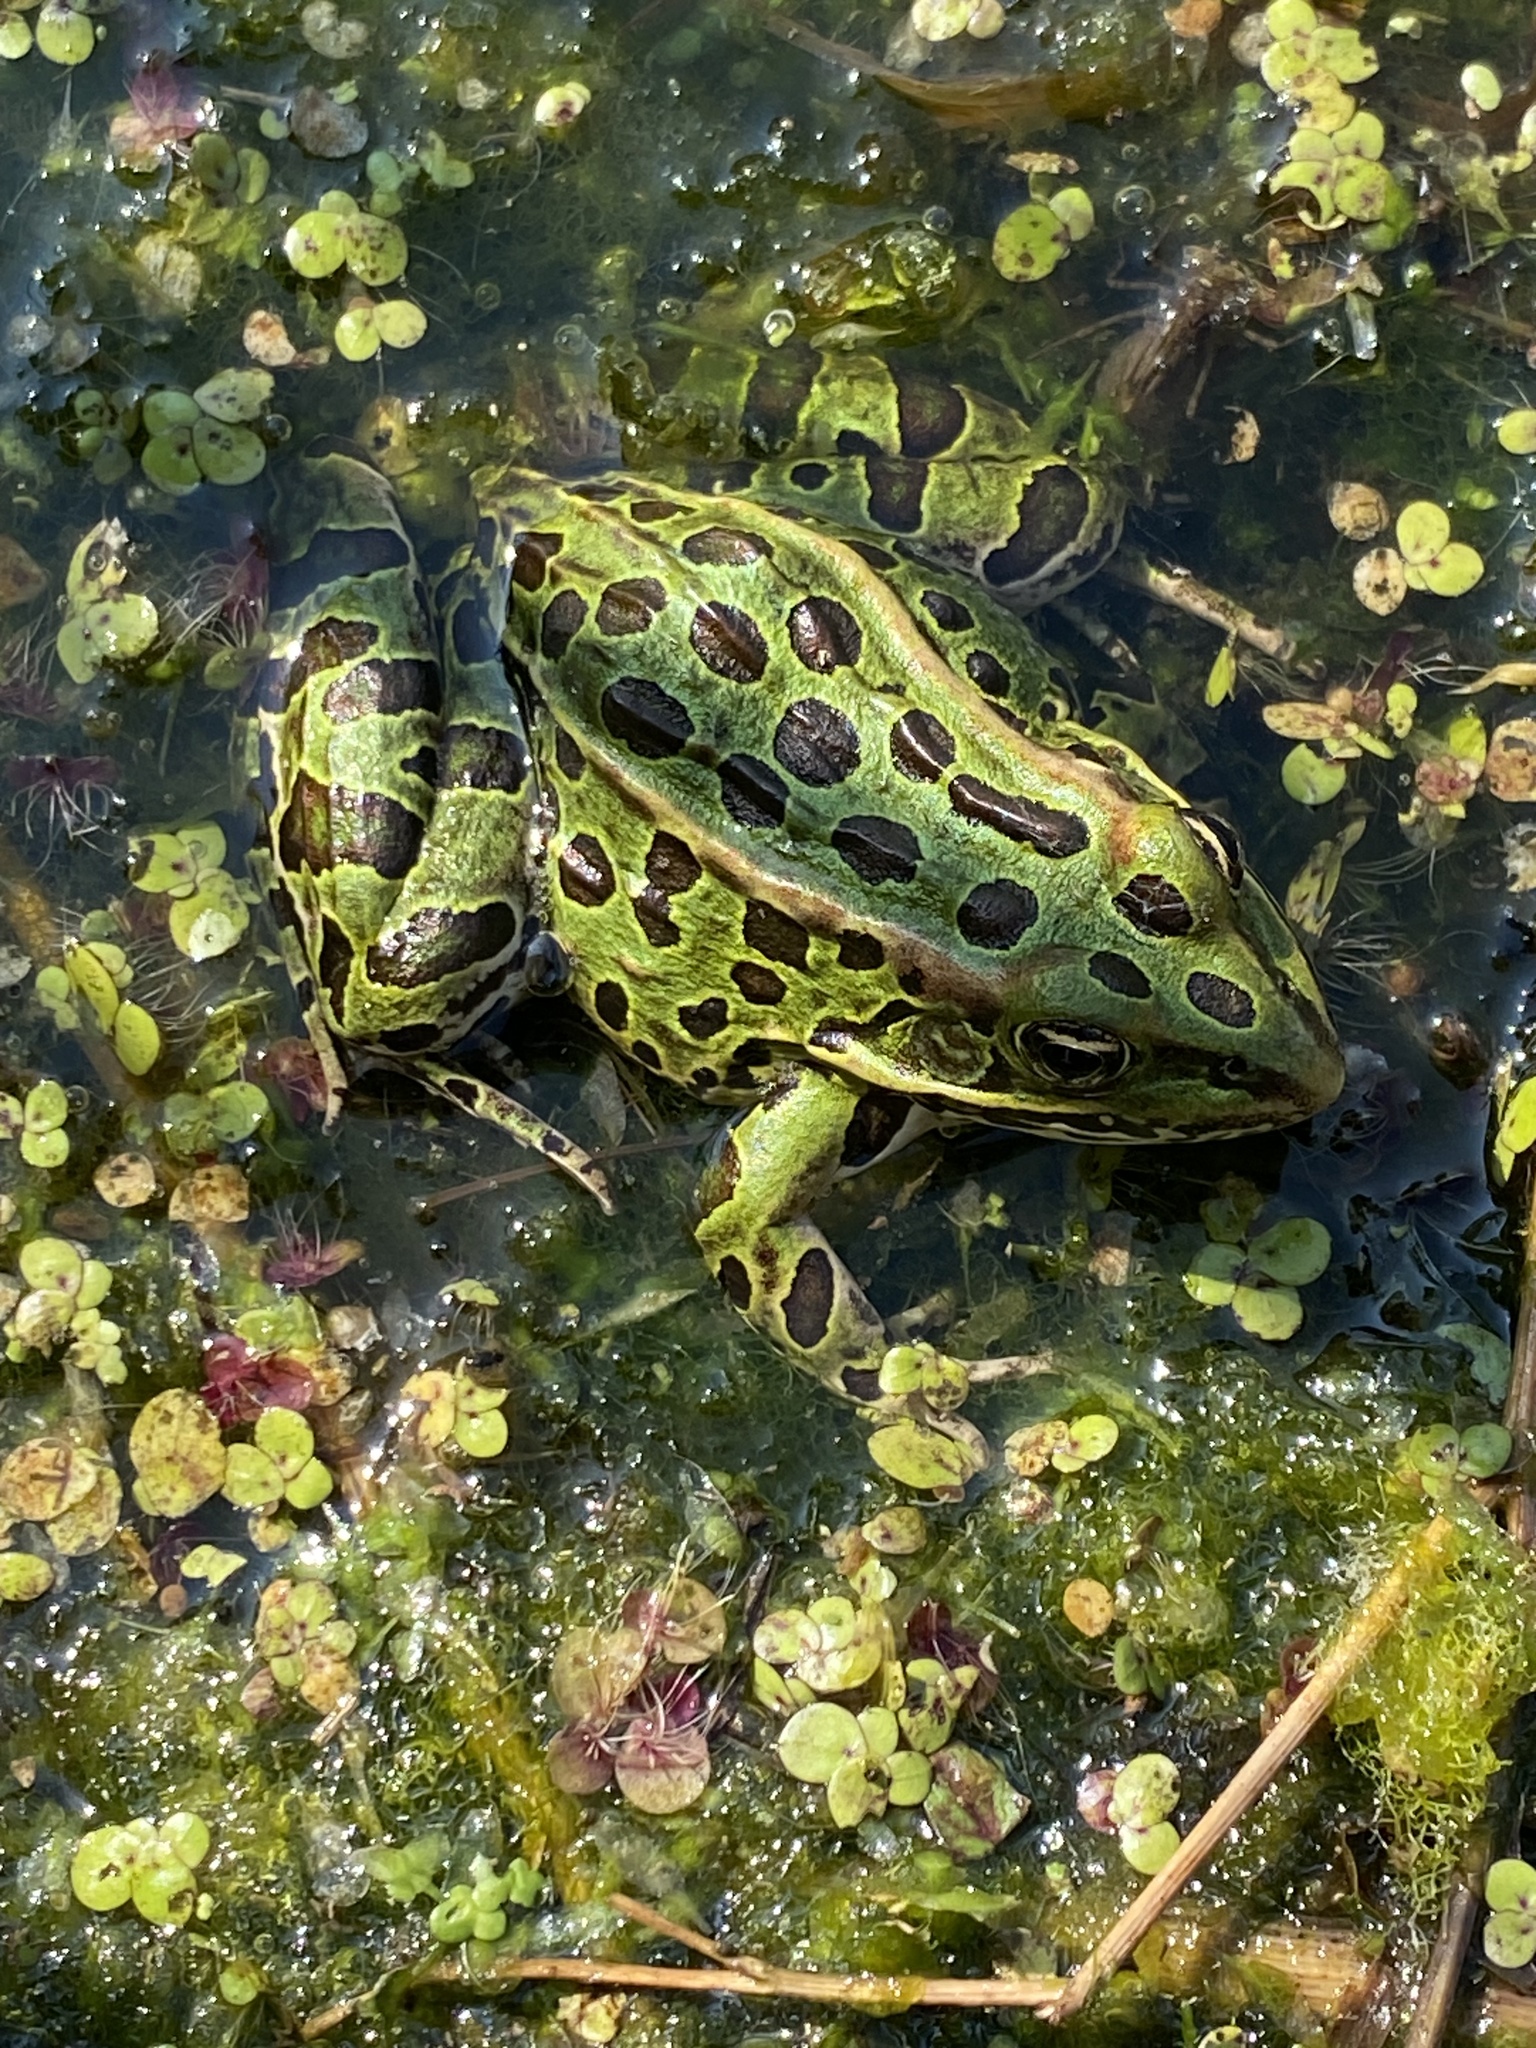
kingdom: Animalia
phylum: Chordata
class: Amphibia
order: Anura
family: Ranidae
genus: Lithobates
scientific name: Lithobates pipiens
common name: Northern leopard frog
